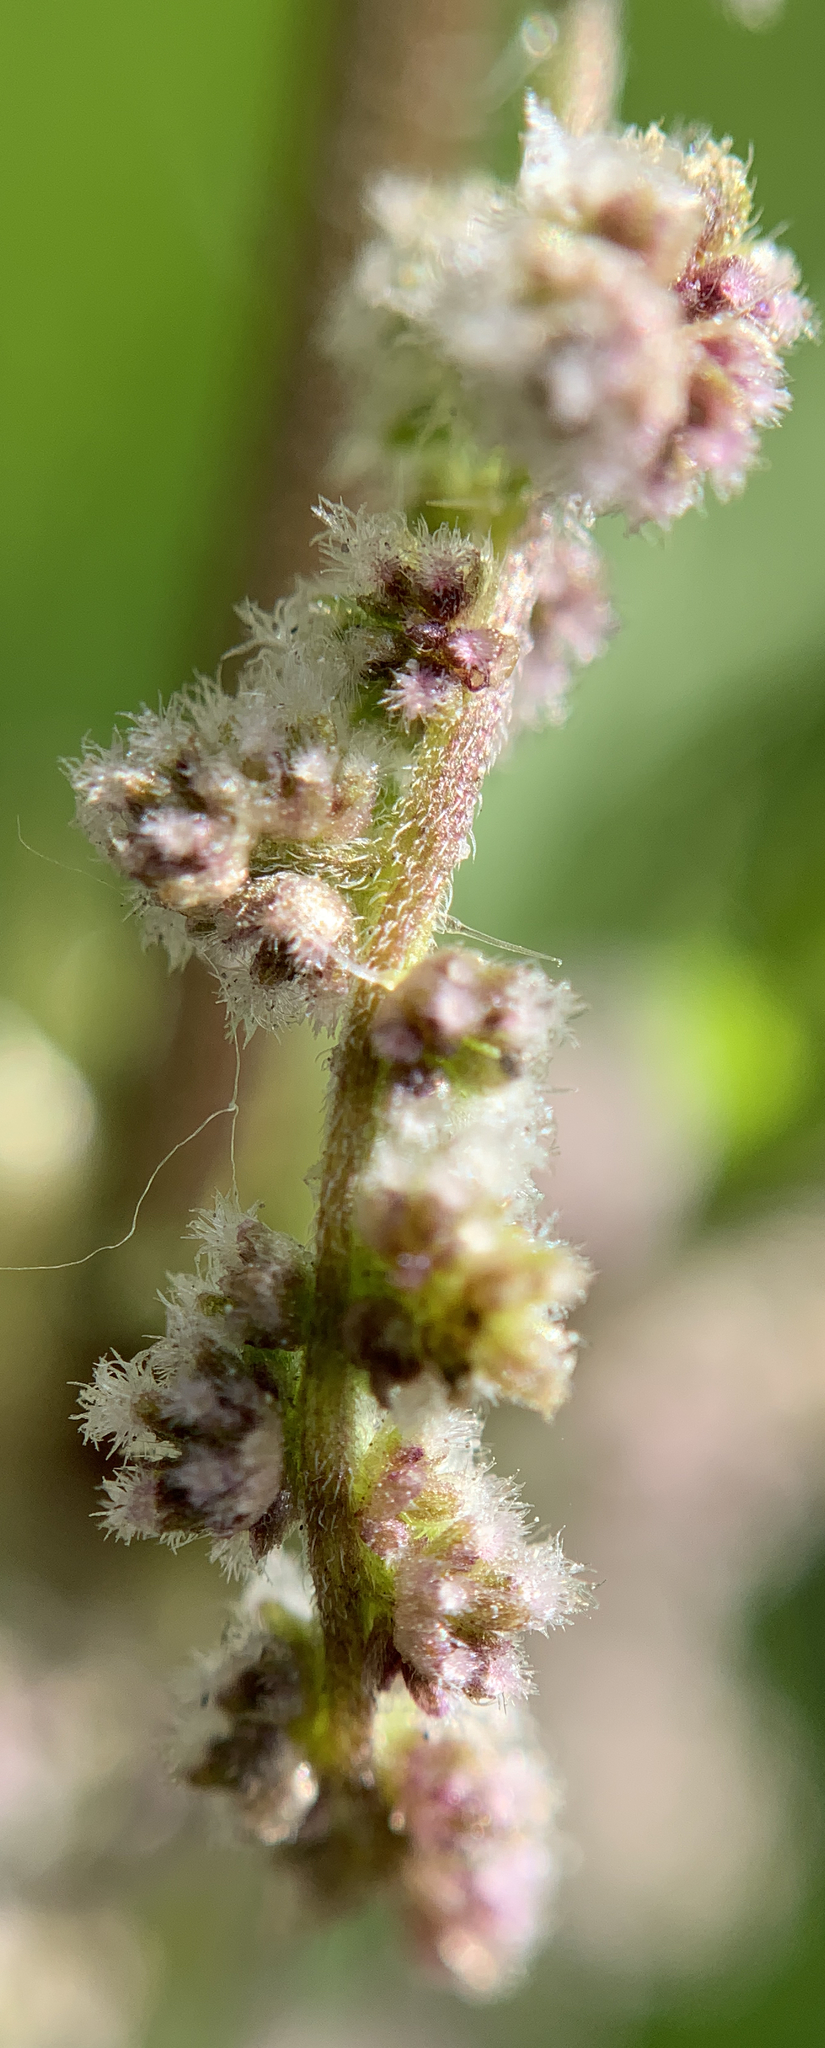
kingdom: Plantae
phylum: Tracheophyta
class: Magnoliopsida
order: Rosales
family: Urticaceae
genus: Urtica
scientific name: Urtica dioica
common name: Common nettle
